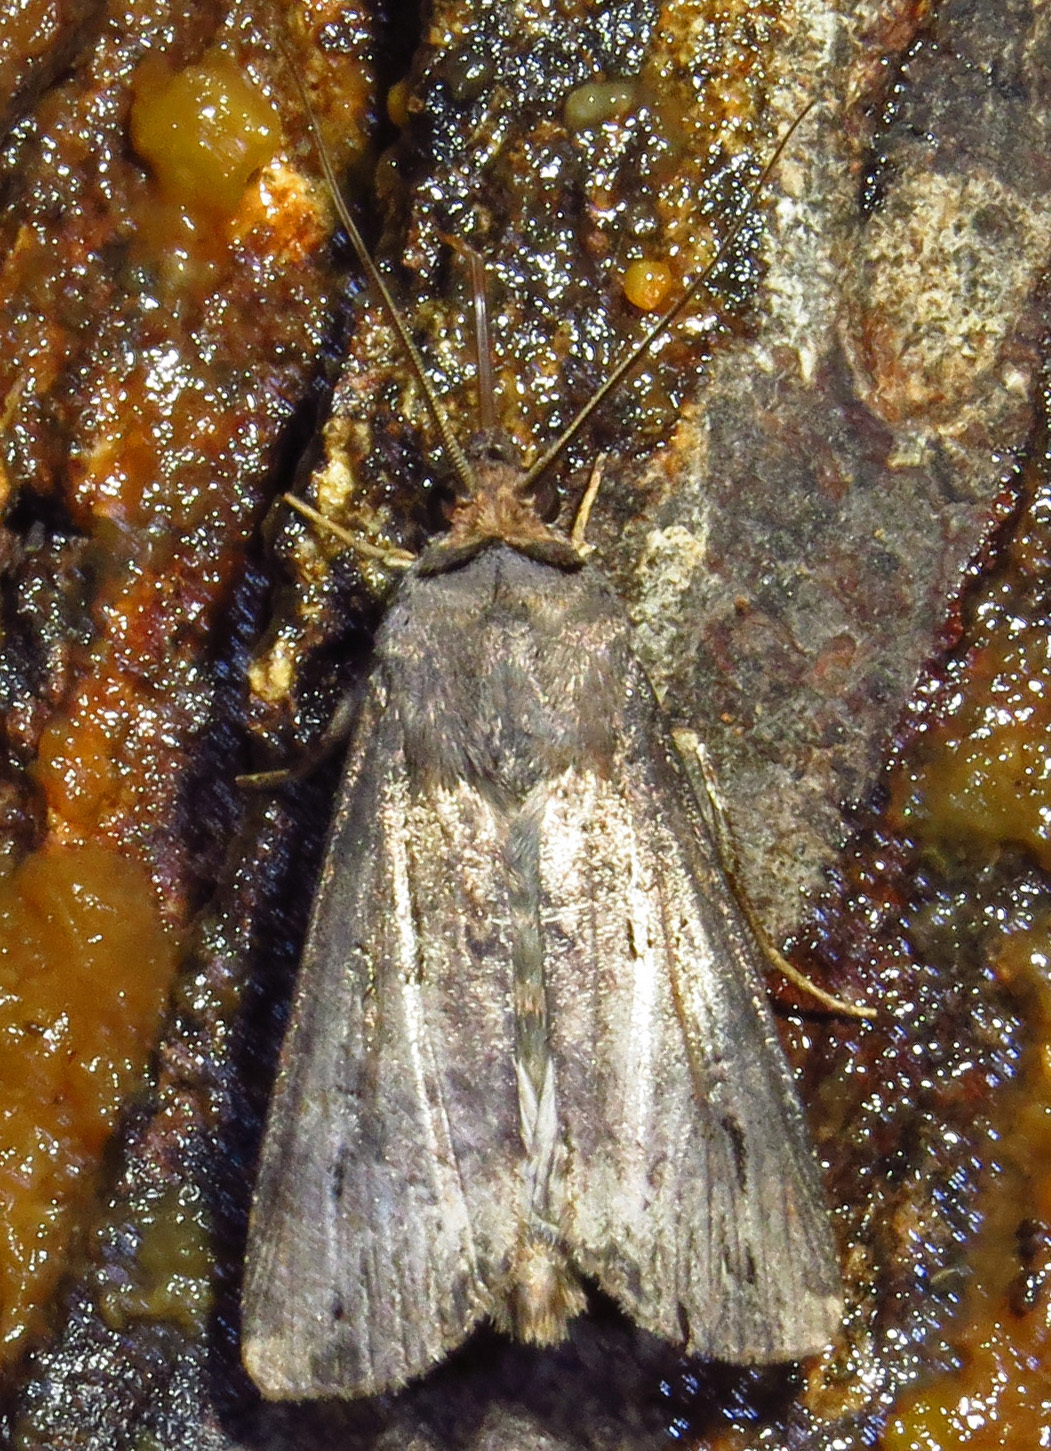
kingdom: Animalia
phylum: Arthropoda
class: Insecta
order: Lepidoptera
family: Noctuidae
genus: Agrotis
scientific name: Agrotis ipsilon
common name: Dark sword-grass
